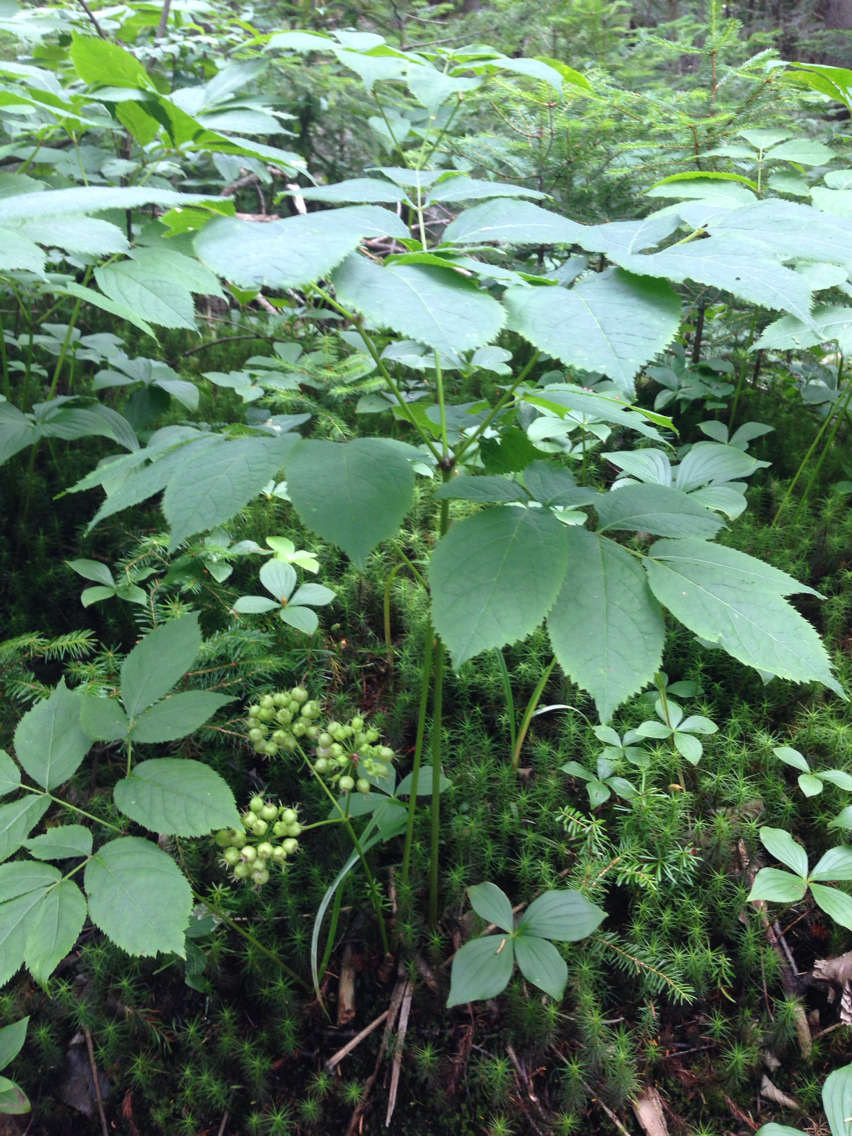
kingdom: Plantae
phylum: Tracheophyta
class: Magnoliopsida
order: Apiales
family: Araliaceae
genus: Aralia
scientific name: Aralia nudicaulis
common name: Wild sarsaparilla
